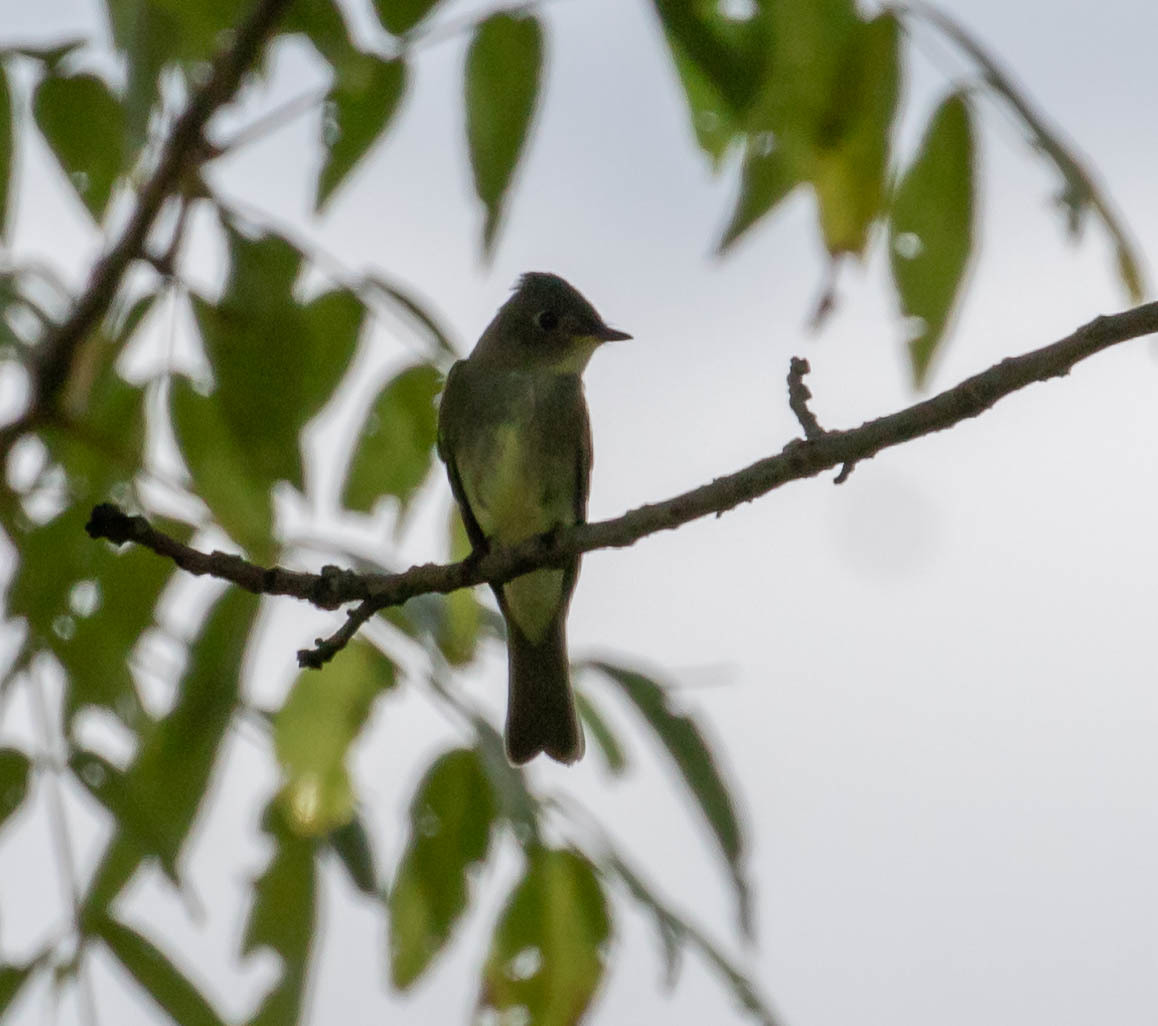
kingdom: Animalia
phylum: Chordata
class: Aves
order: Passeriformes
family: Tyrannidae
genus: Contopus
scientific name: Contopus virens
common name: Eastern wood-pewee
